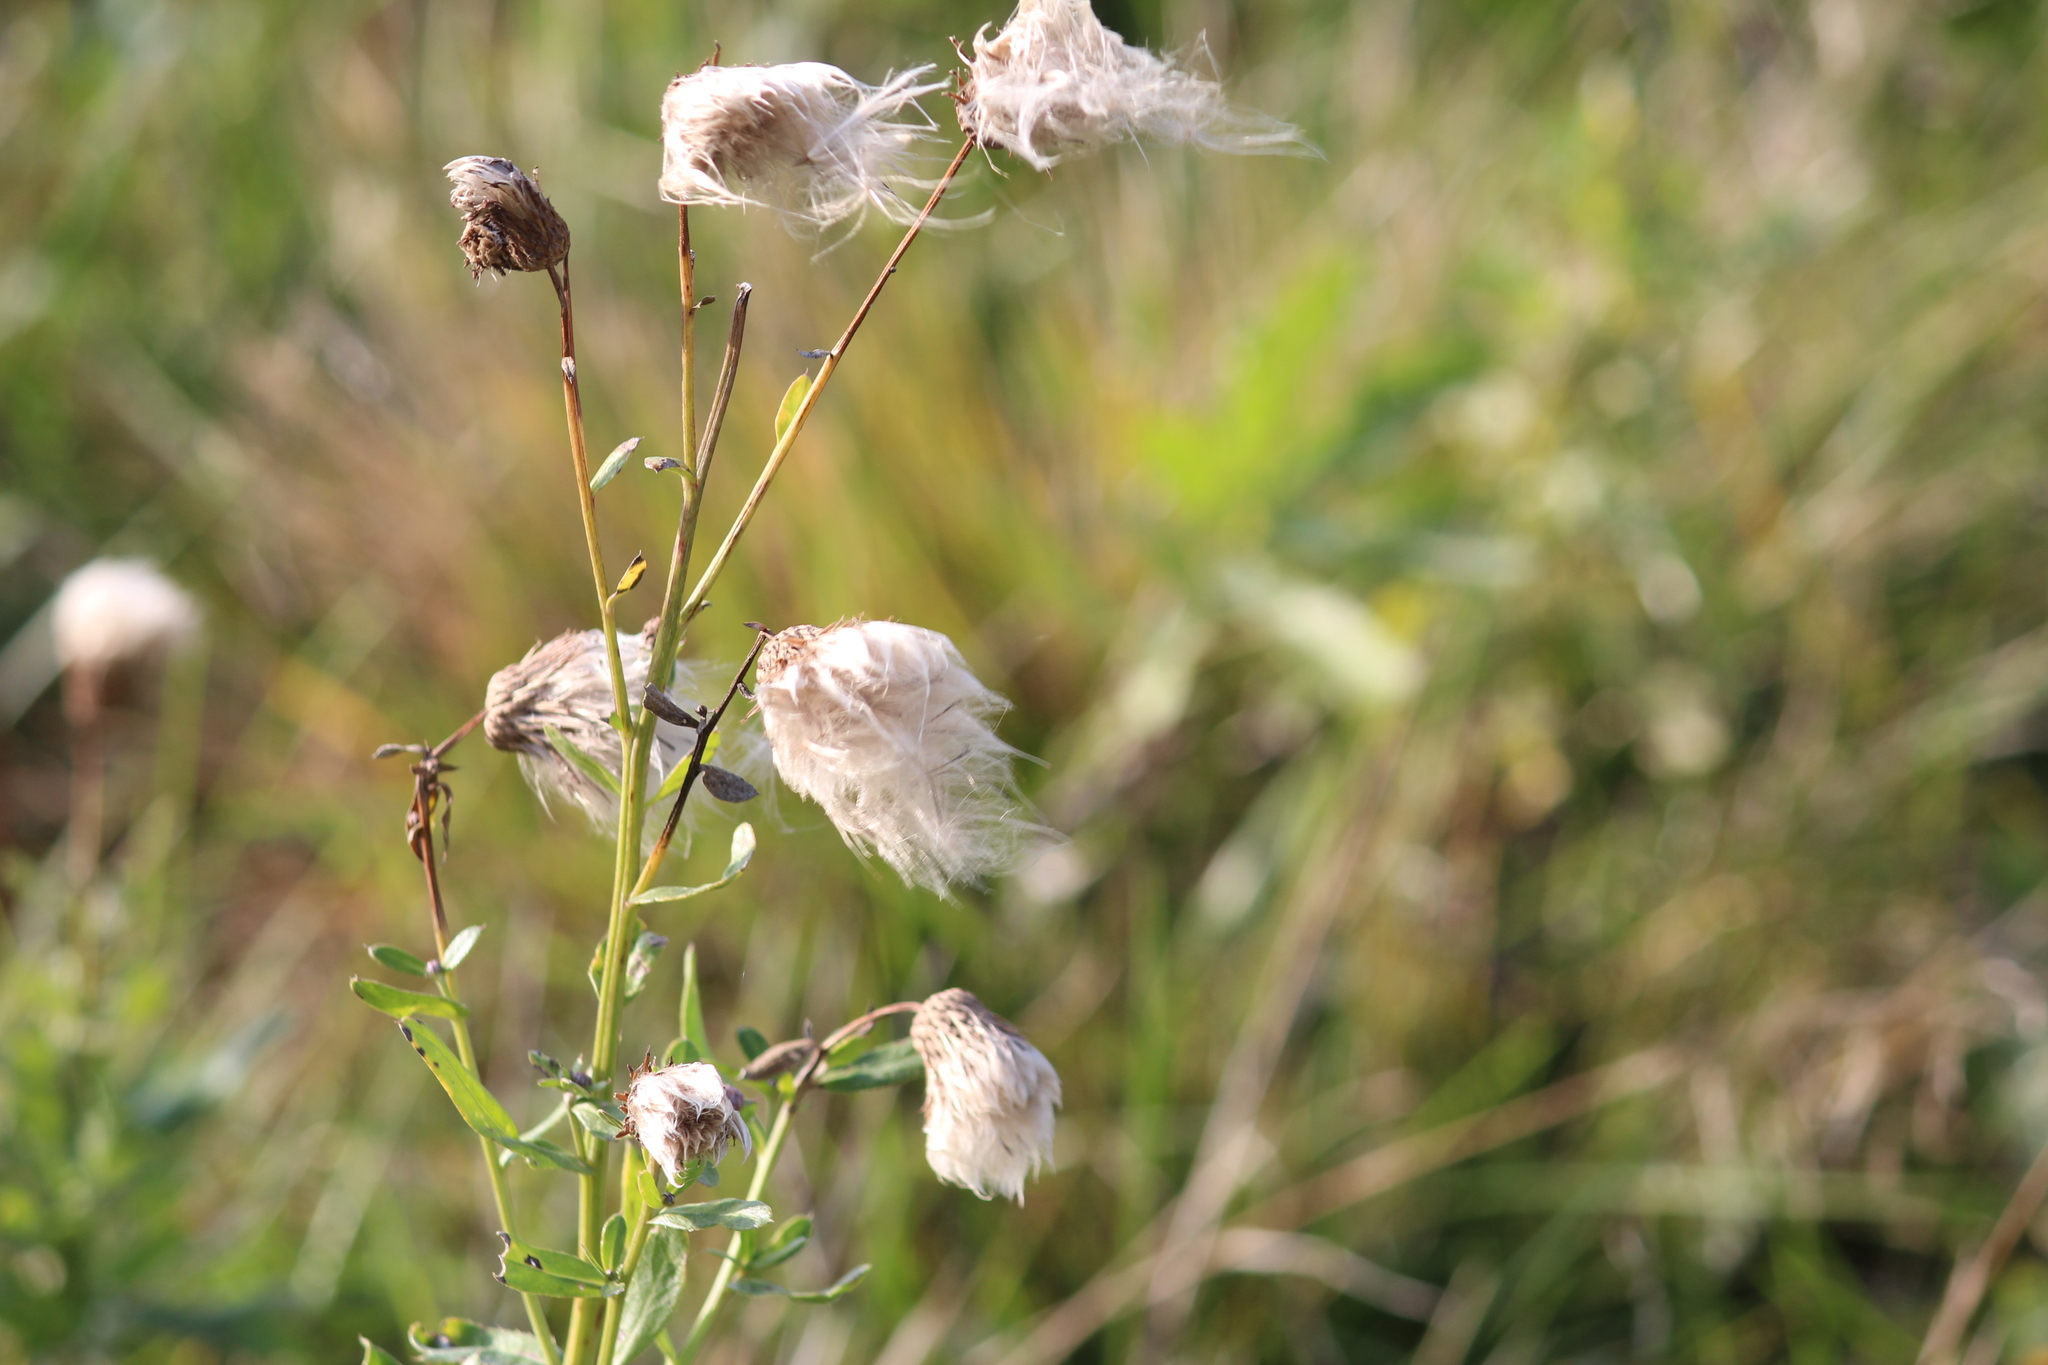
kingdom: Plantae
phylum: Tracheophyta
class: Magnoliopsida
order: Asterales
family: Asteraceae
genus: Cirsium
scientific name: Cirsium arvense
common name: Creeping thistle
